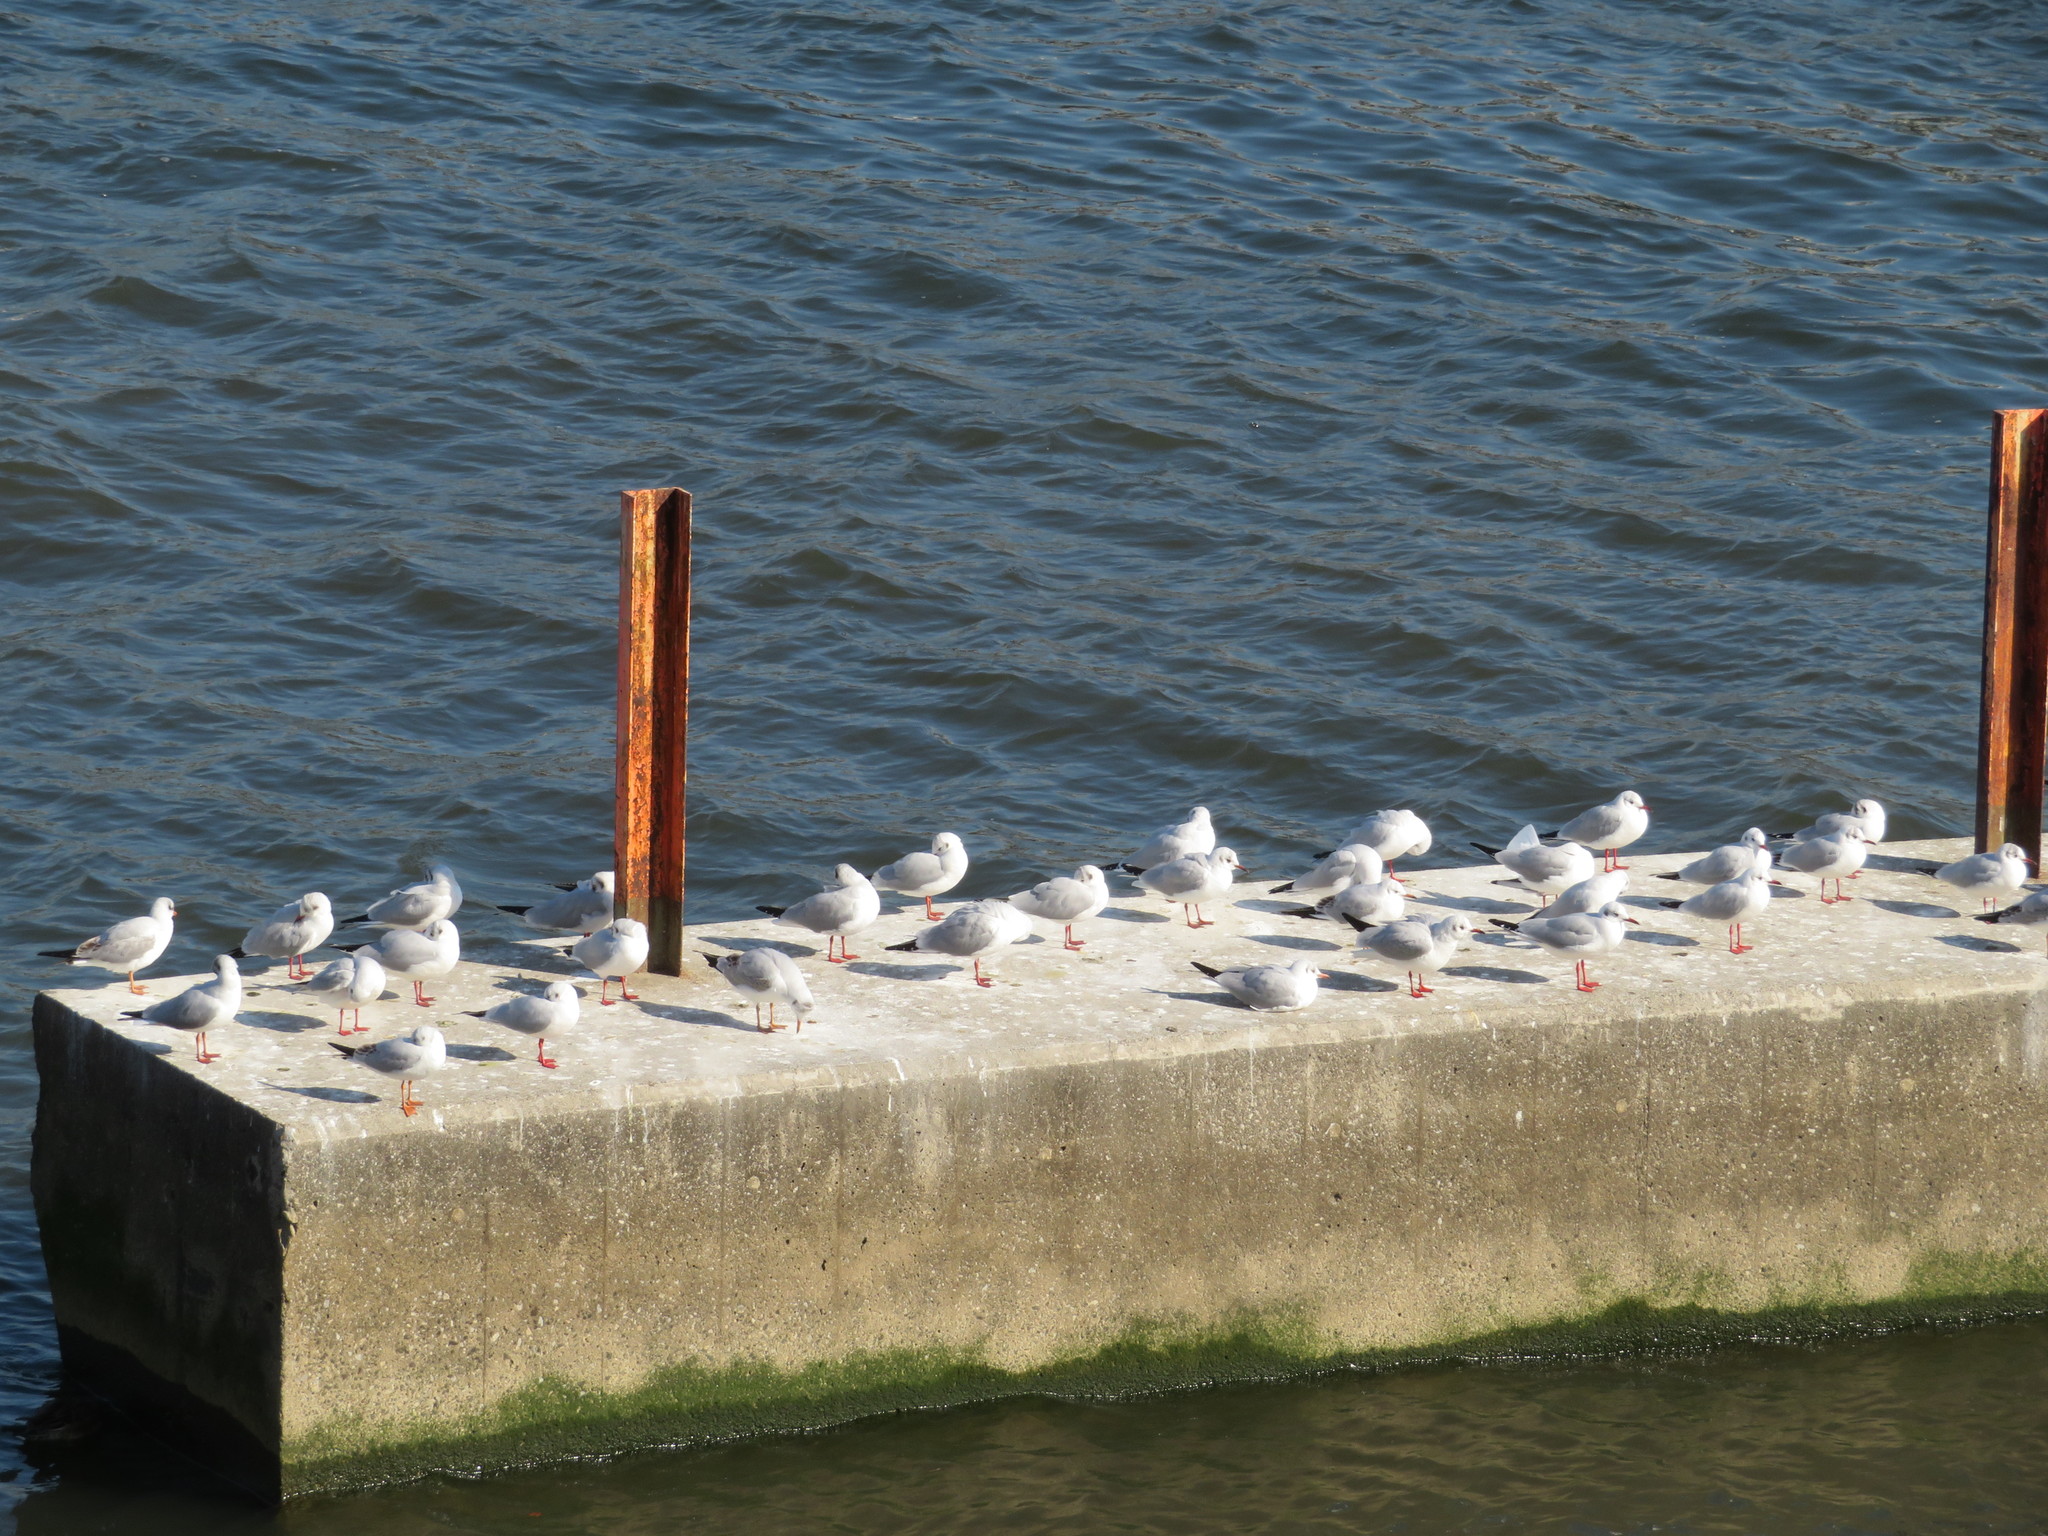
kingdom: Animalia
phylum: Chordata
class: Aves
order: Charadriiformes
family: Laridae
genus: Chroicocephalus
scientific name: Chroicocephalus ridibundus
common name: Black-headed gull
